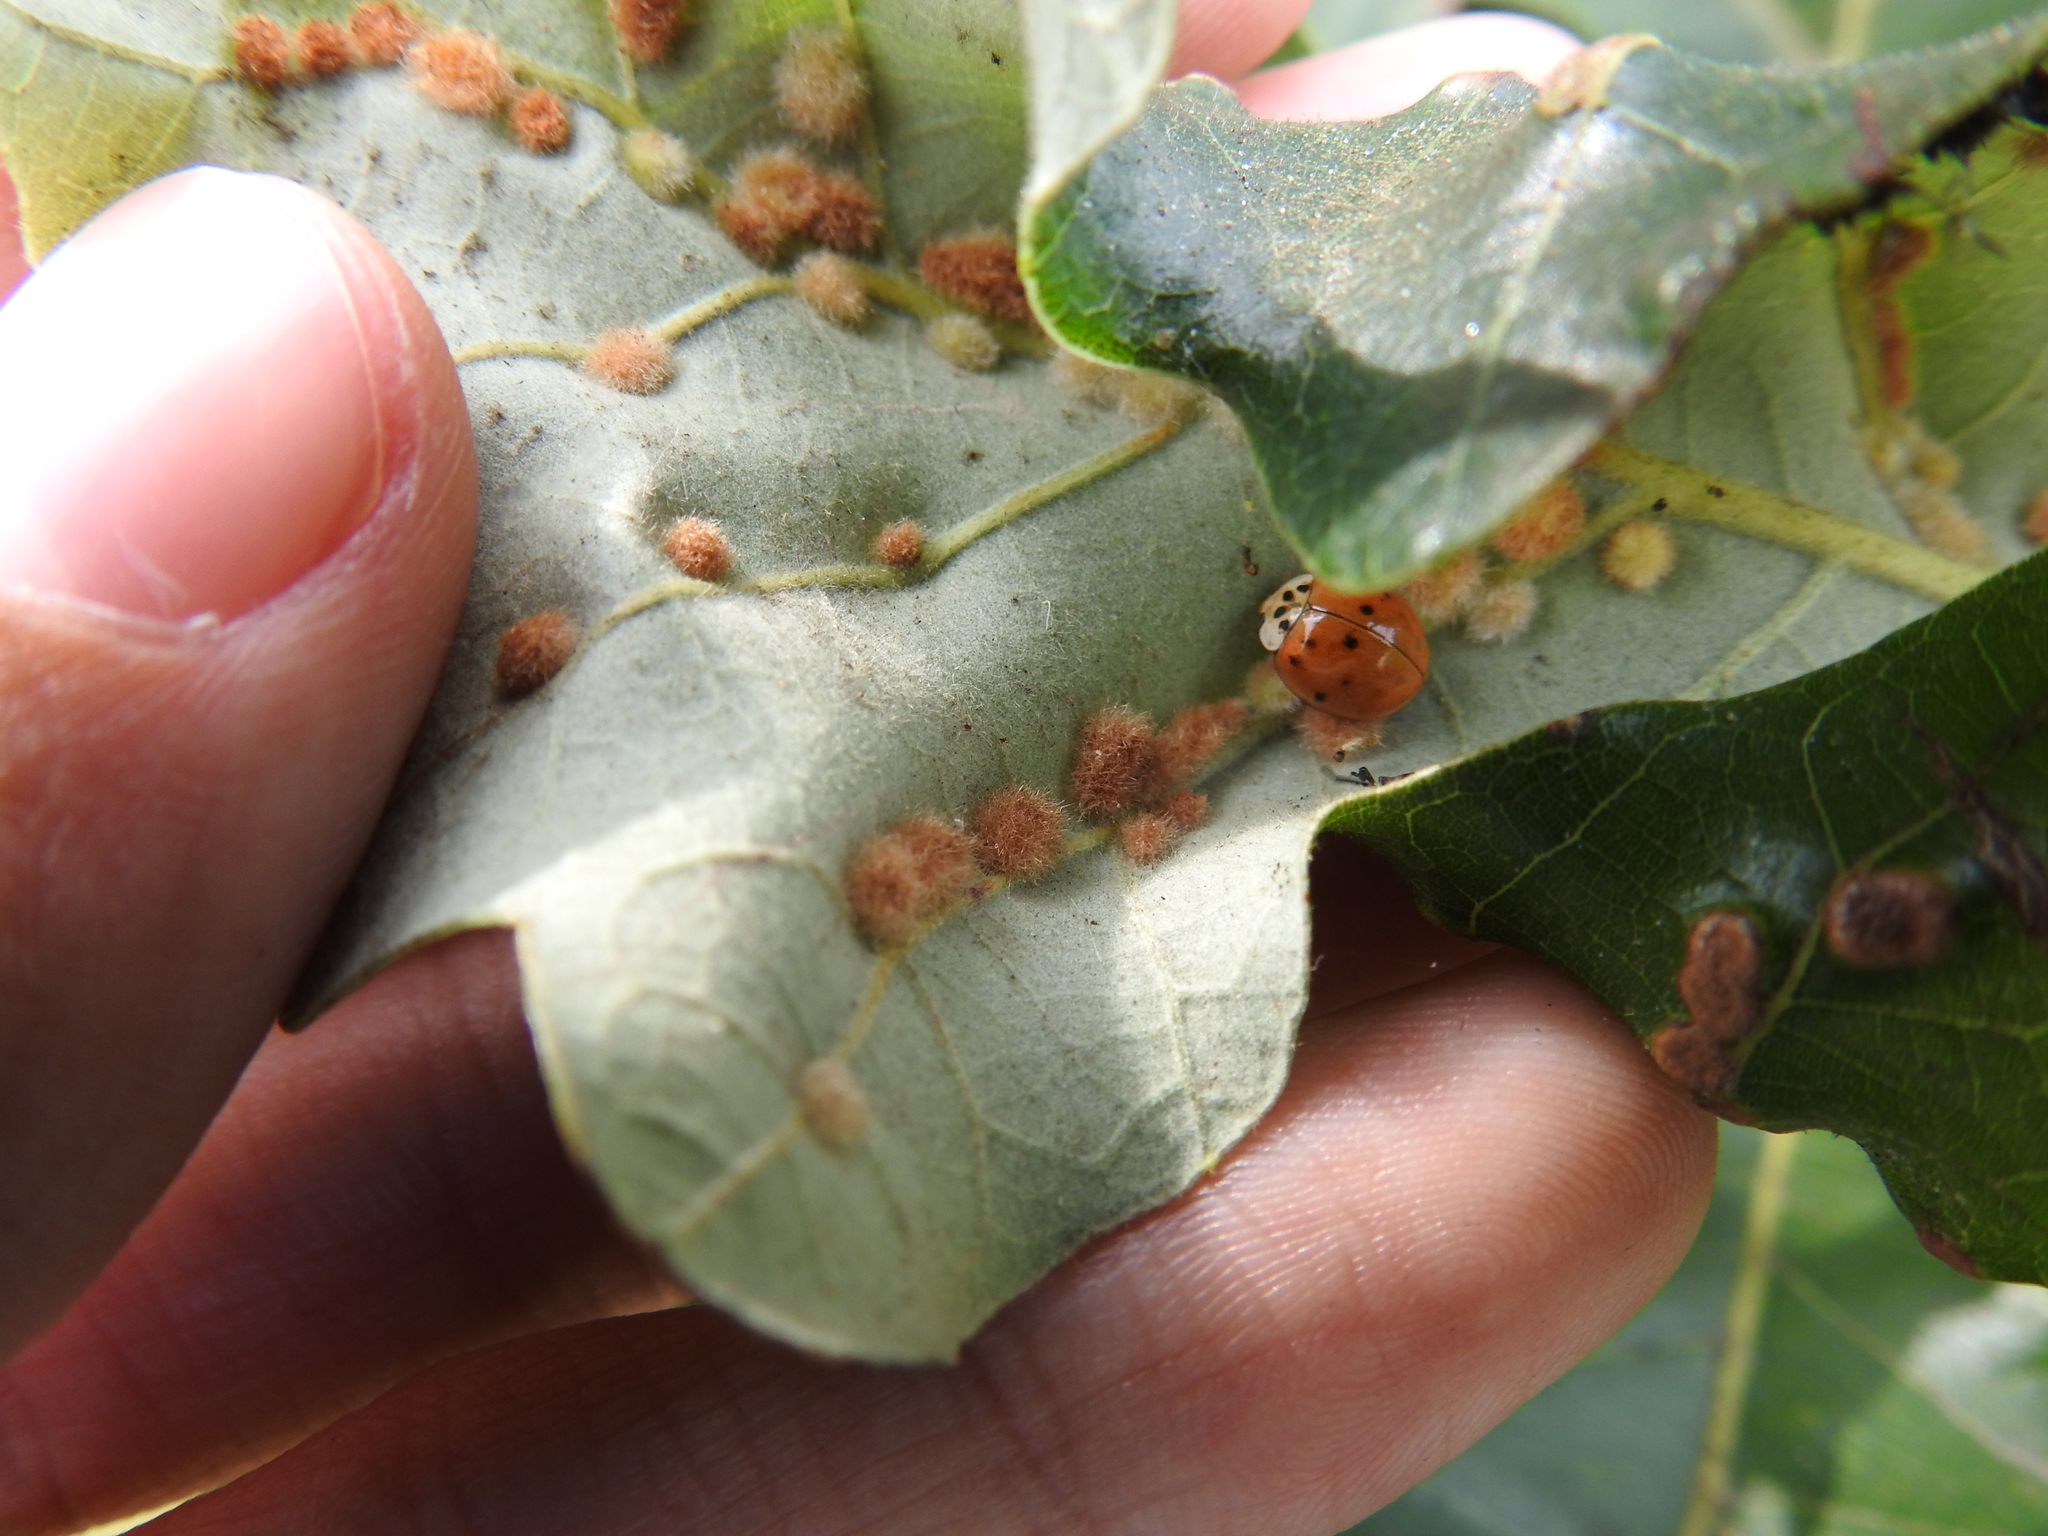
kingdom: Animalia
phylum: Arthropoda
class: Insecta
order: Coleoptera
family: Coccinellidae
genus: Harmonia
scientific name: Harmonia axyridis
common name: Harlequin ladybird
